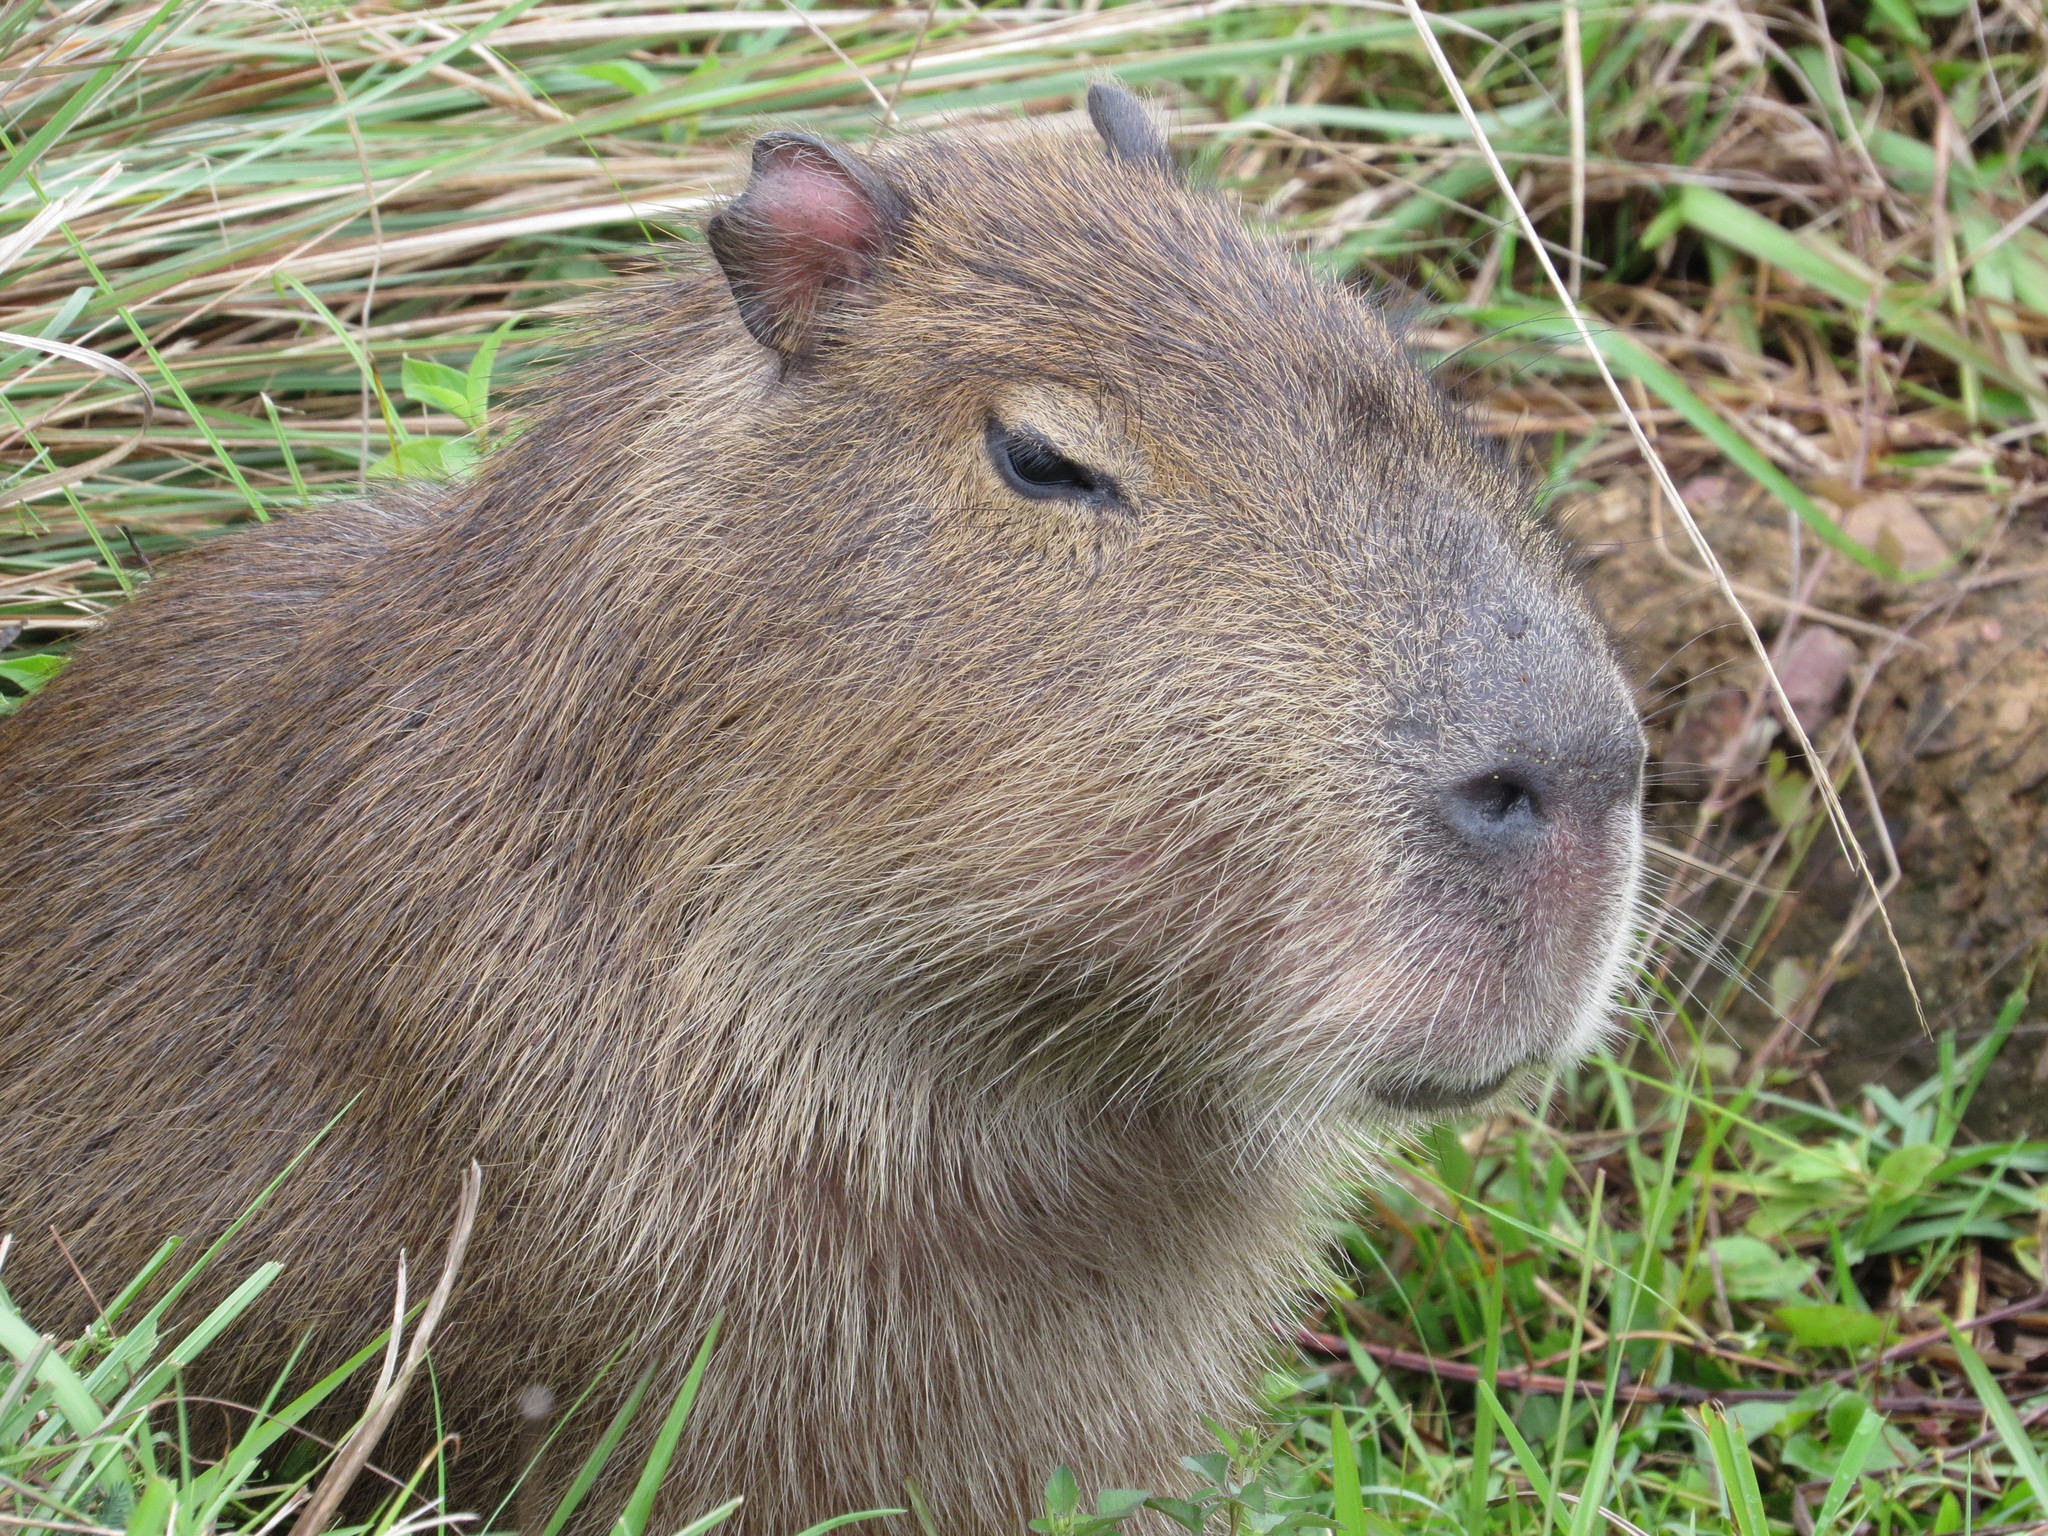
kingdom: Animalia
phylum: Chordata
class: Mammalia
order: Rodentia
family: Caviidae
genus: Hydrochoerus
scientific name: Hydrochoerus hydrochaeris
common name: Capybara
